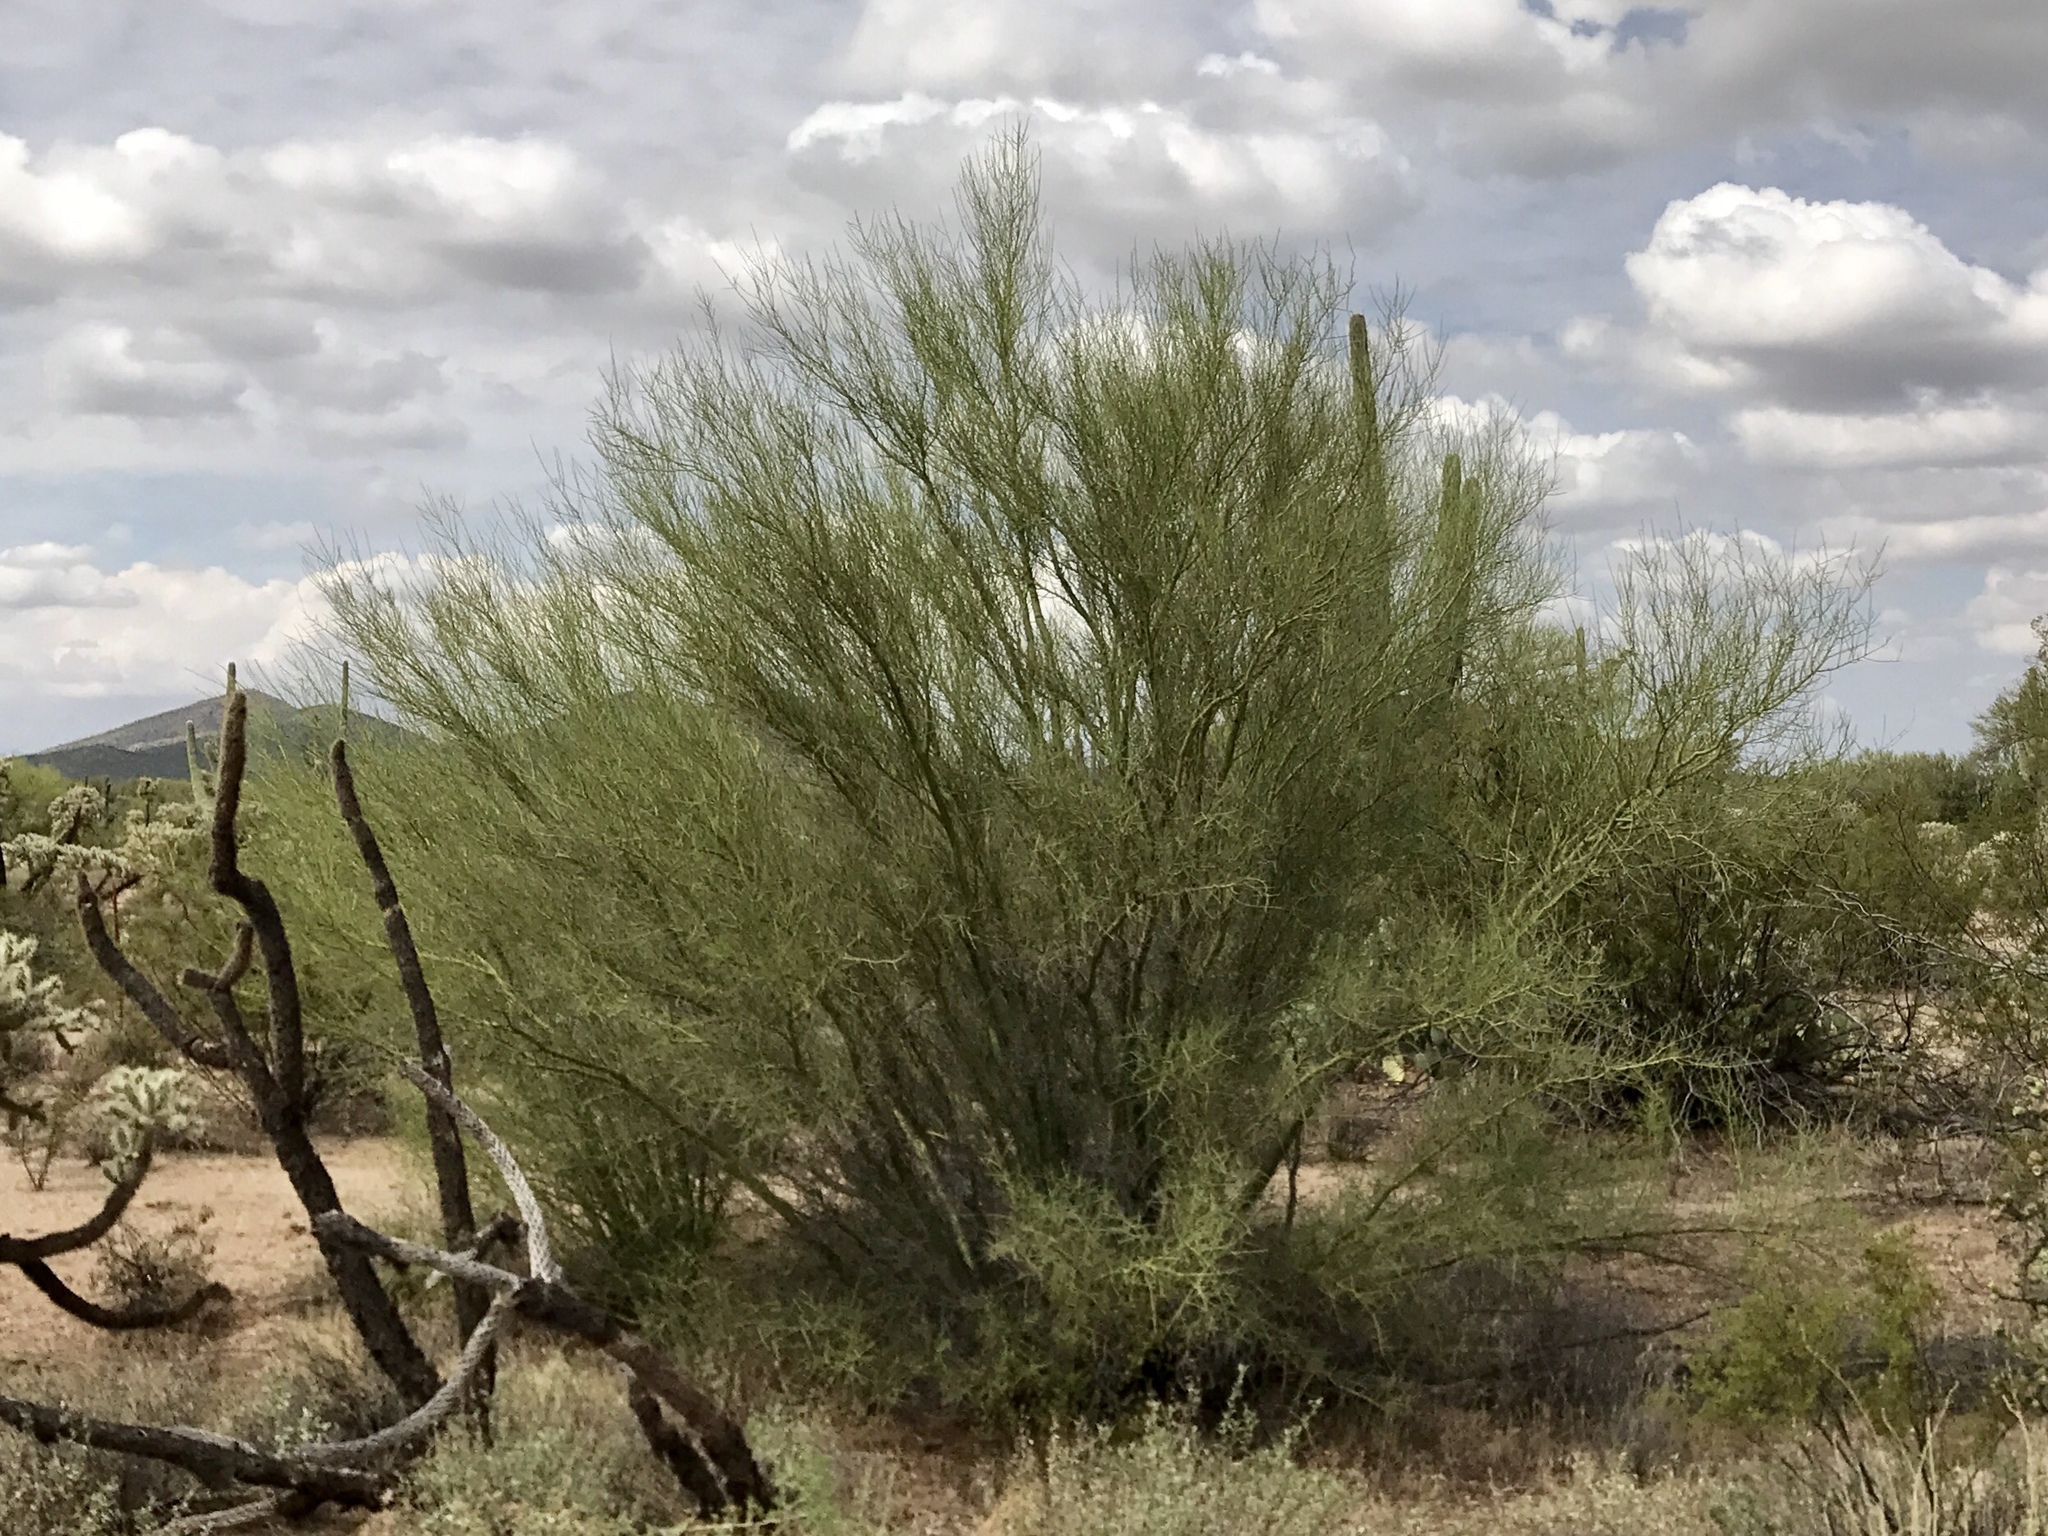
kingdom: Plantae
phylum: Tracheophyta
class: Magnoliopsida
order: Fabales
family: Fabaceae
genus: Parkinsonia
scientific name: Parkinsonia florida
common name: Blue paloverde
